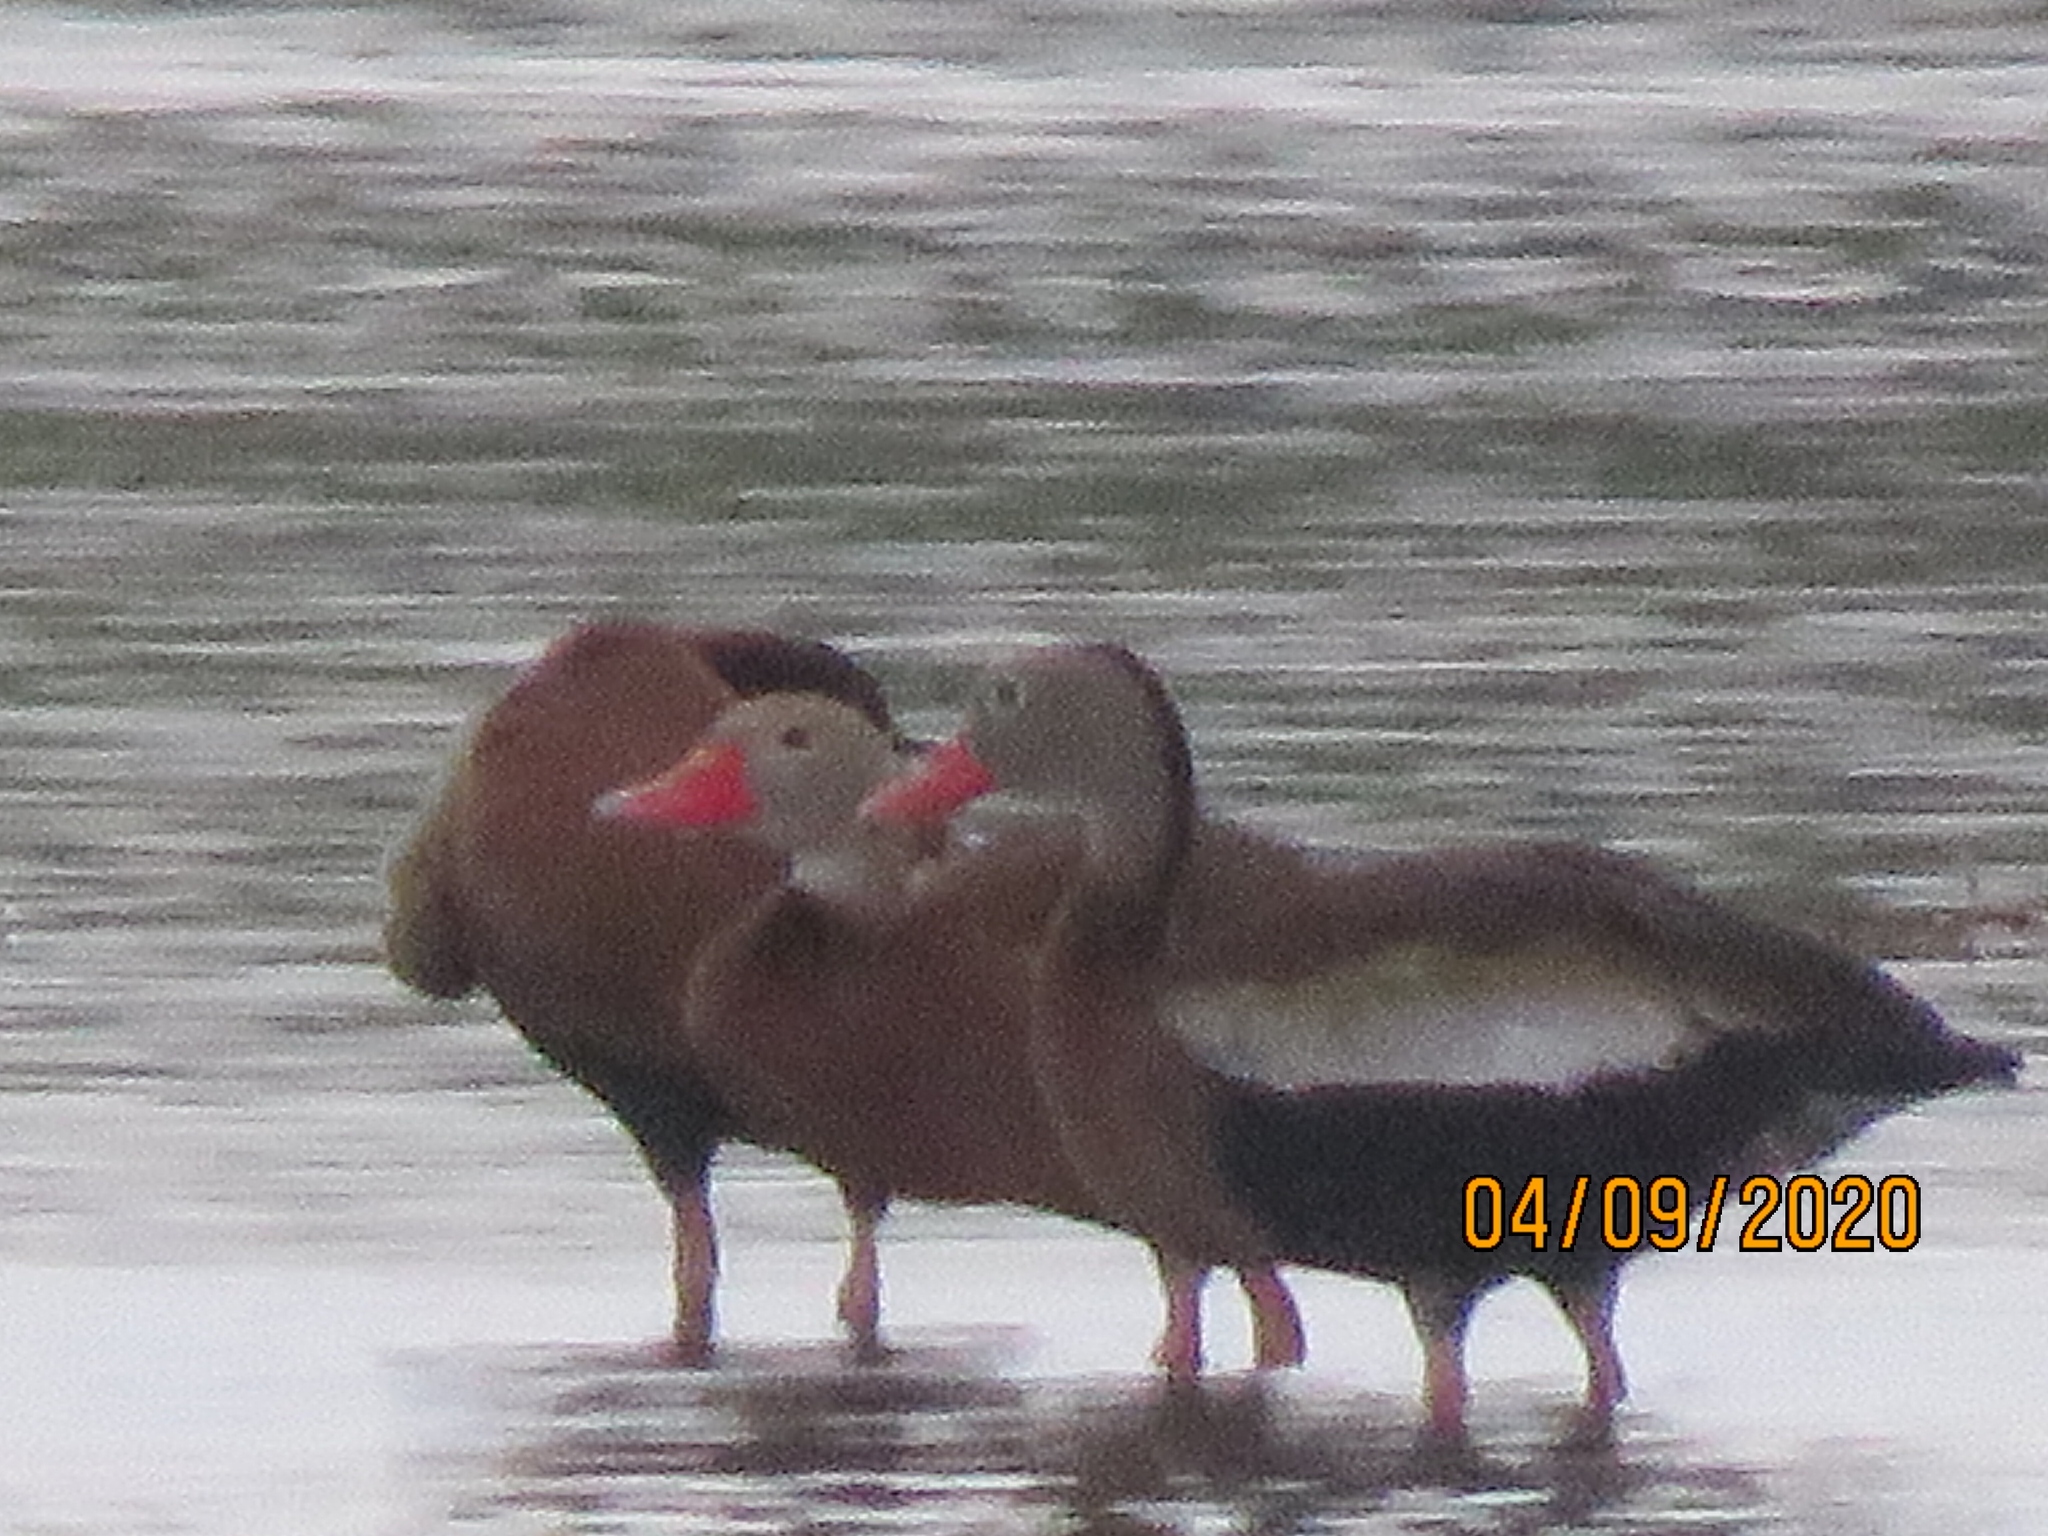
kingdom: Animalia
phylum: Chordata
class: Aves
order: Anseriformes
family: Anatidae
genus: Dendrocygna
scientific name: Dendrocygna autumnalis
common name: Black-bellied whistling duck
